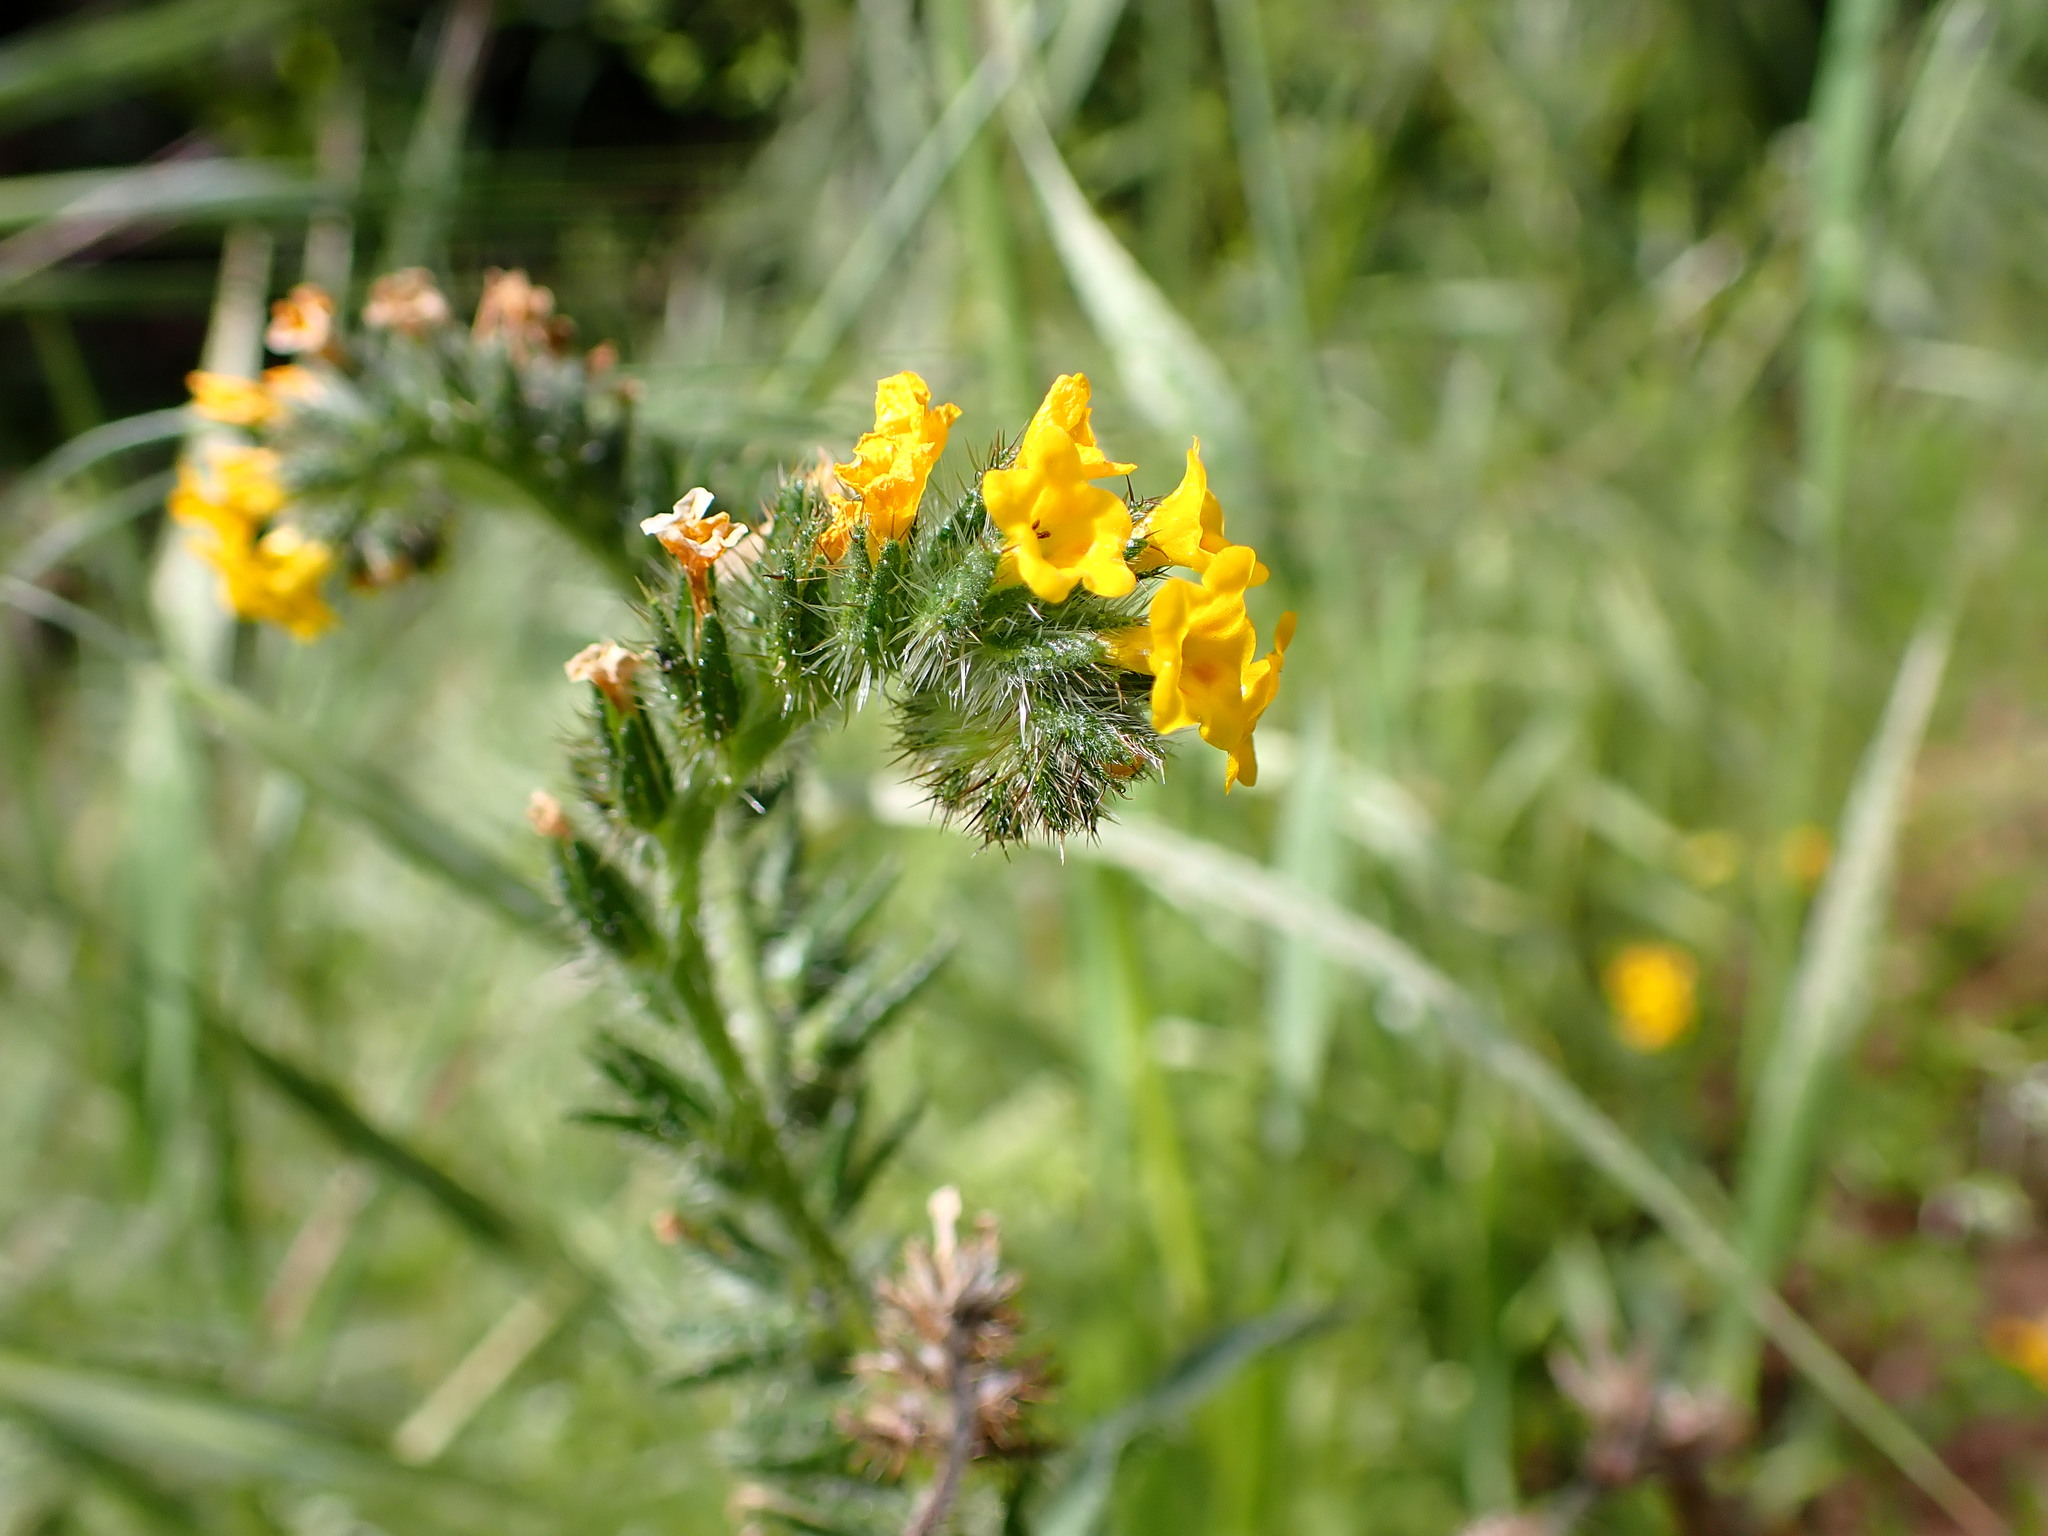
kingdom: Plantae
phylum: Tracheophyta
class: Magnoliopsida
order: Boraginales
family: Boraginaceae
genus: Amsinckia
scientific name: Amsinckia menziesii
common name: Menzies' fiddleneck
